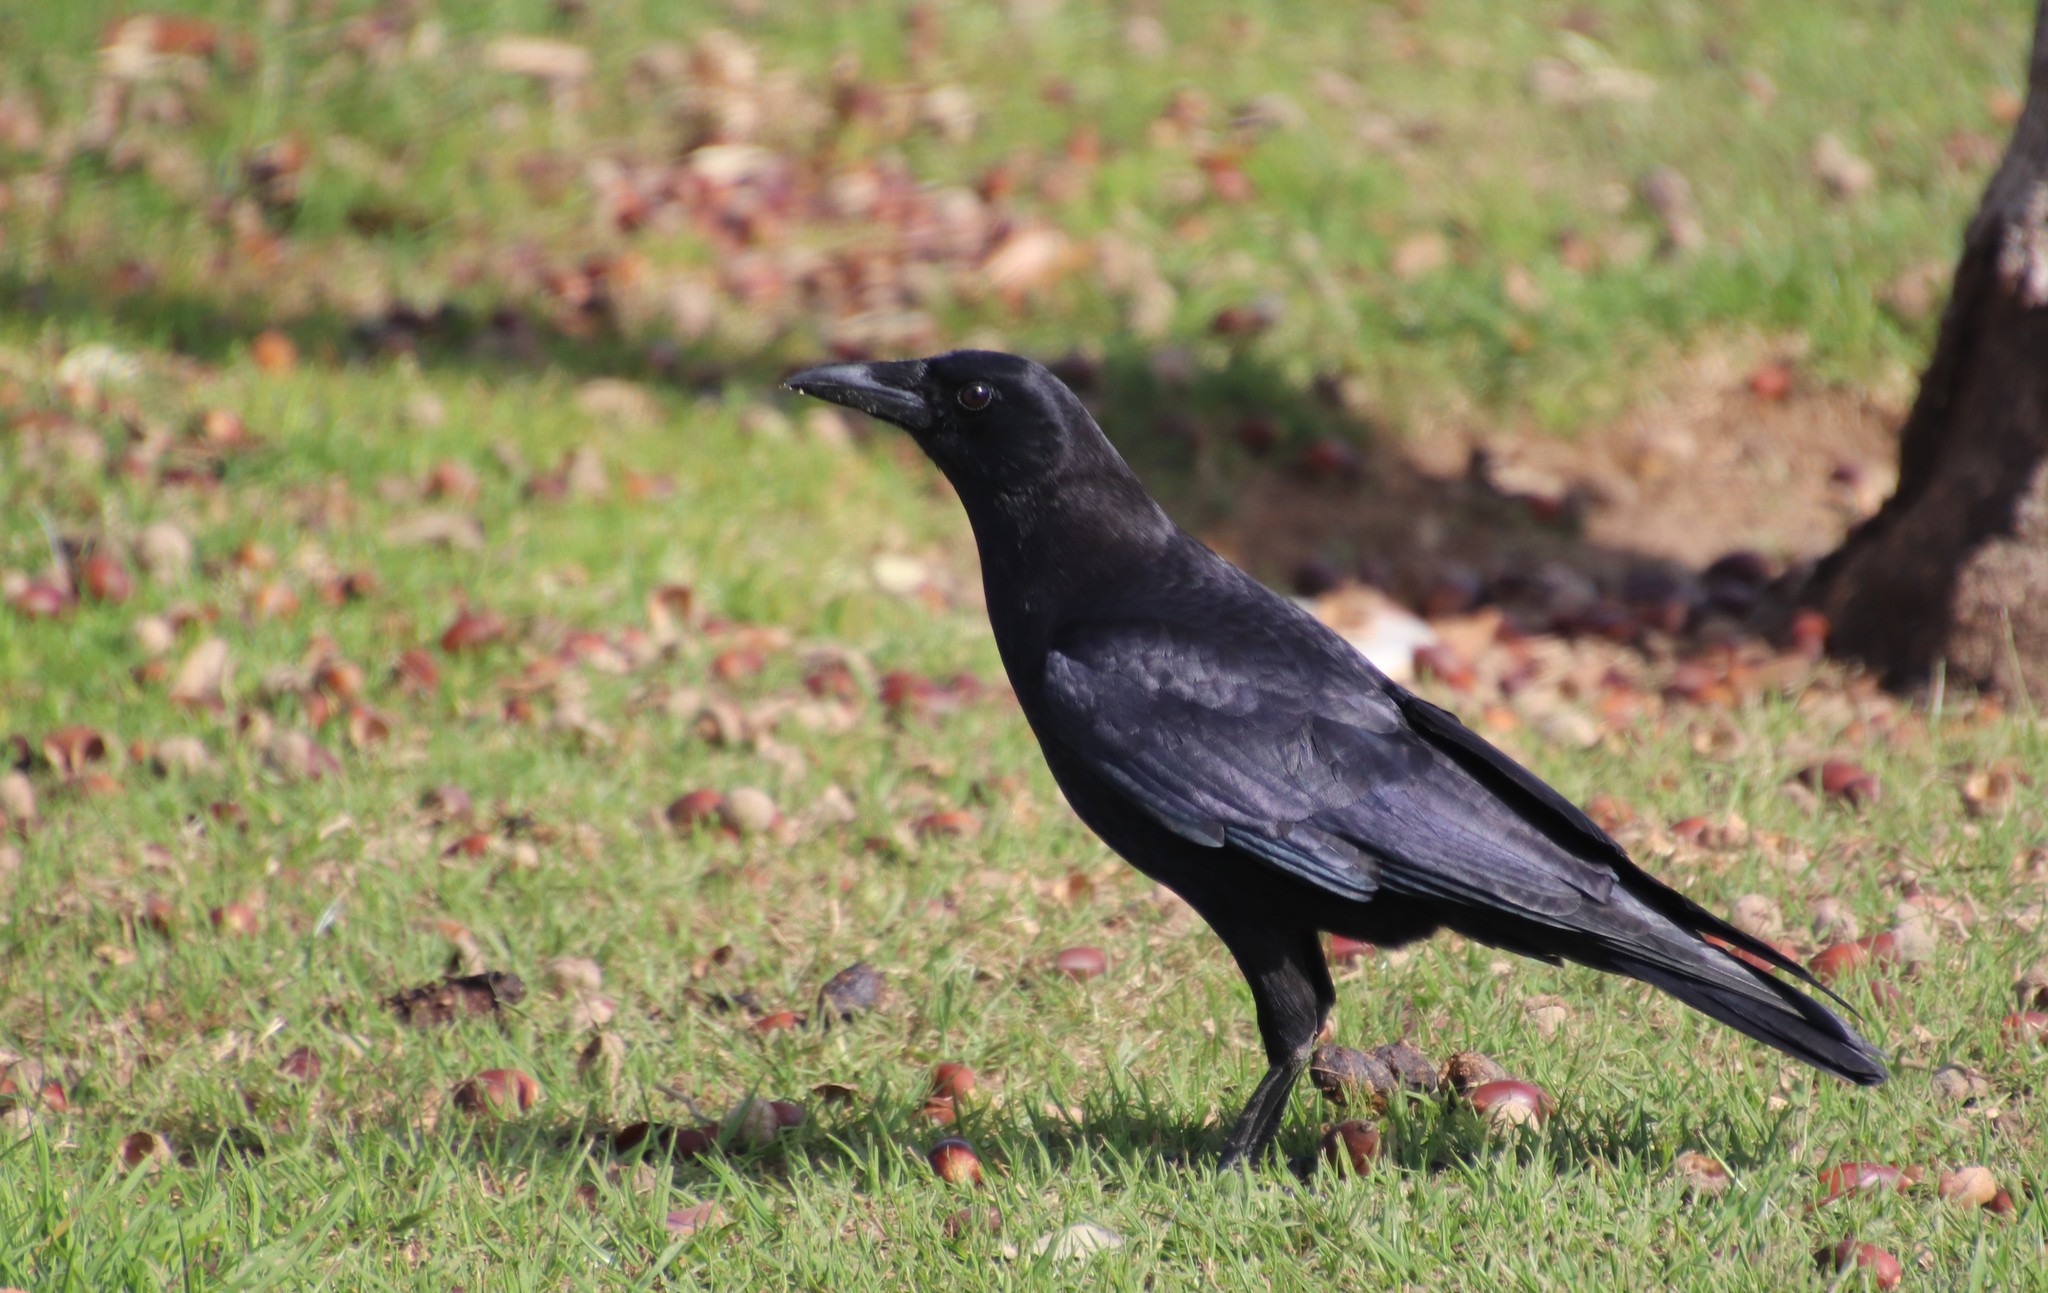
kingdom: Animalia
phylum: Chordata
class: Aves
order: Passeriformes
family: Corvidae
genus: Corvus
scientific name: Corvus brachyrhynchos
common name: American crow
